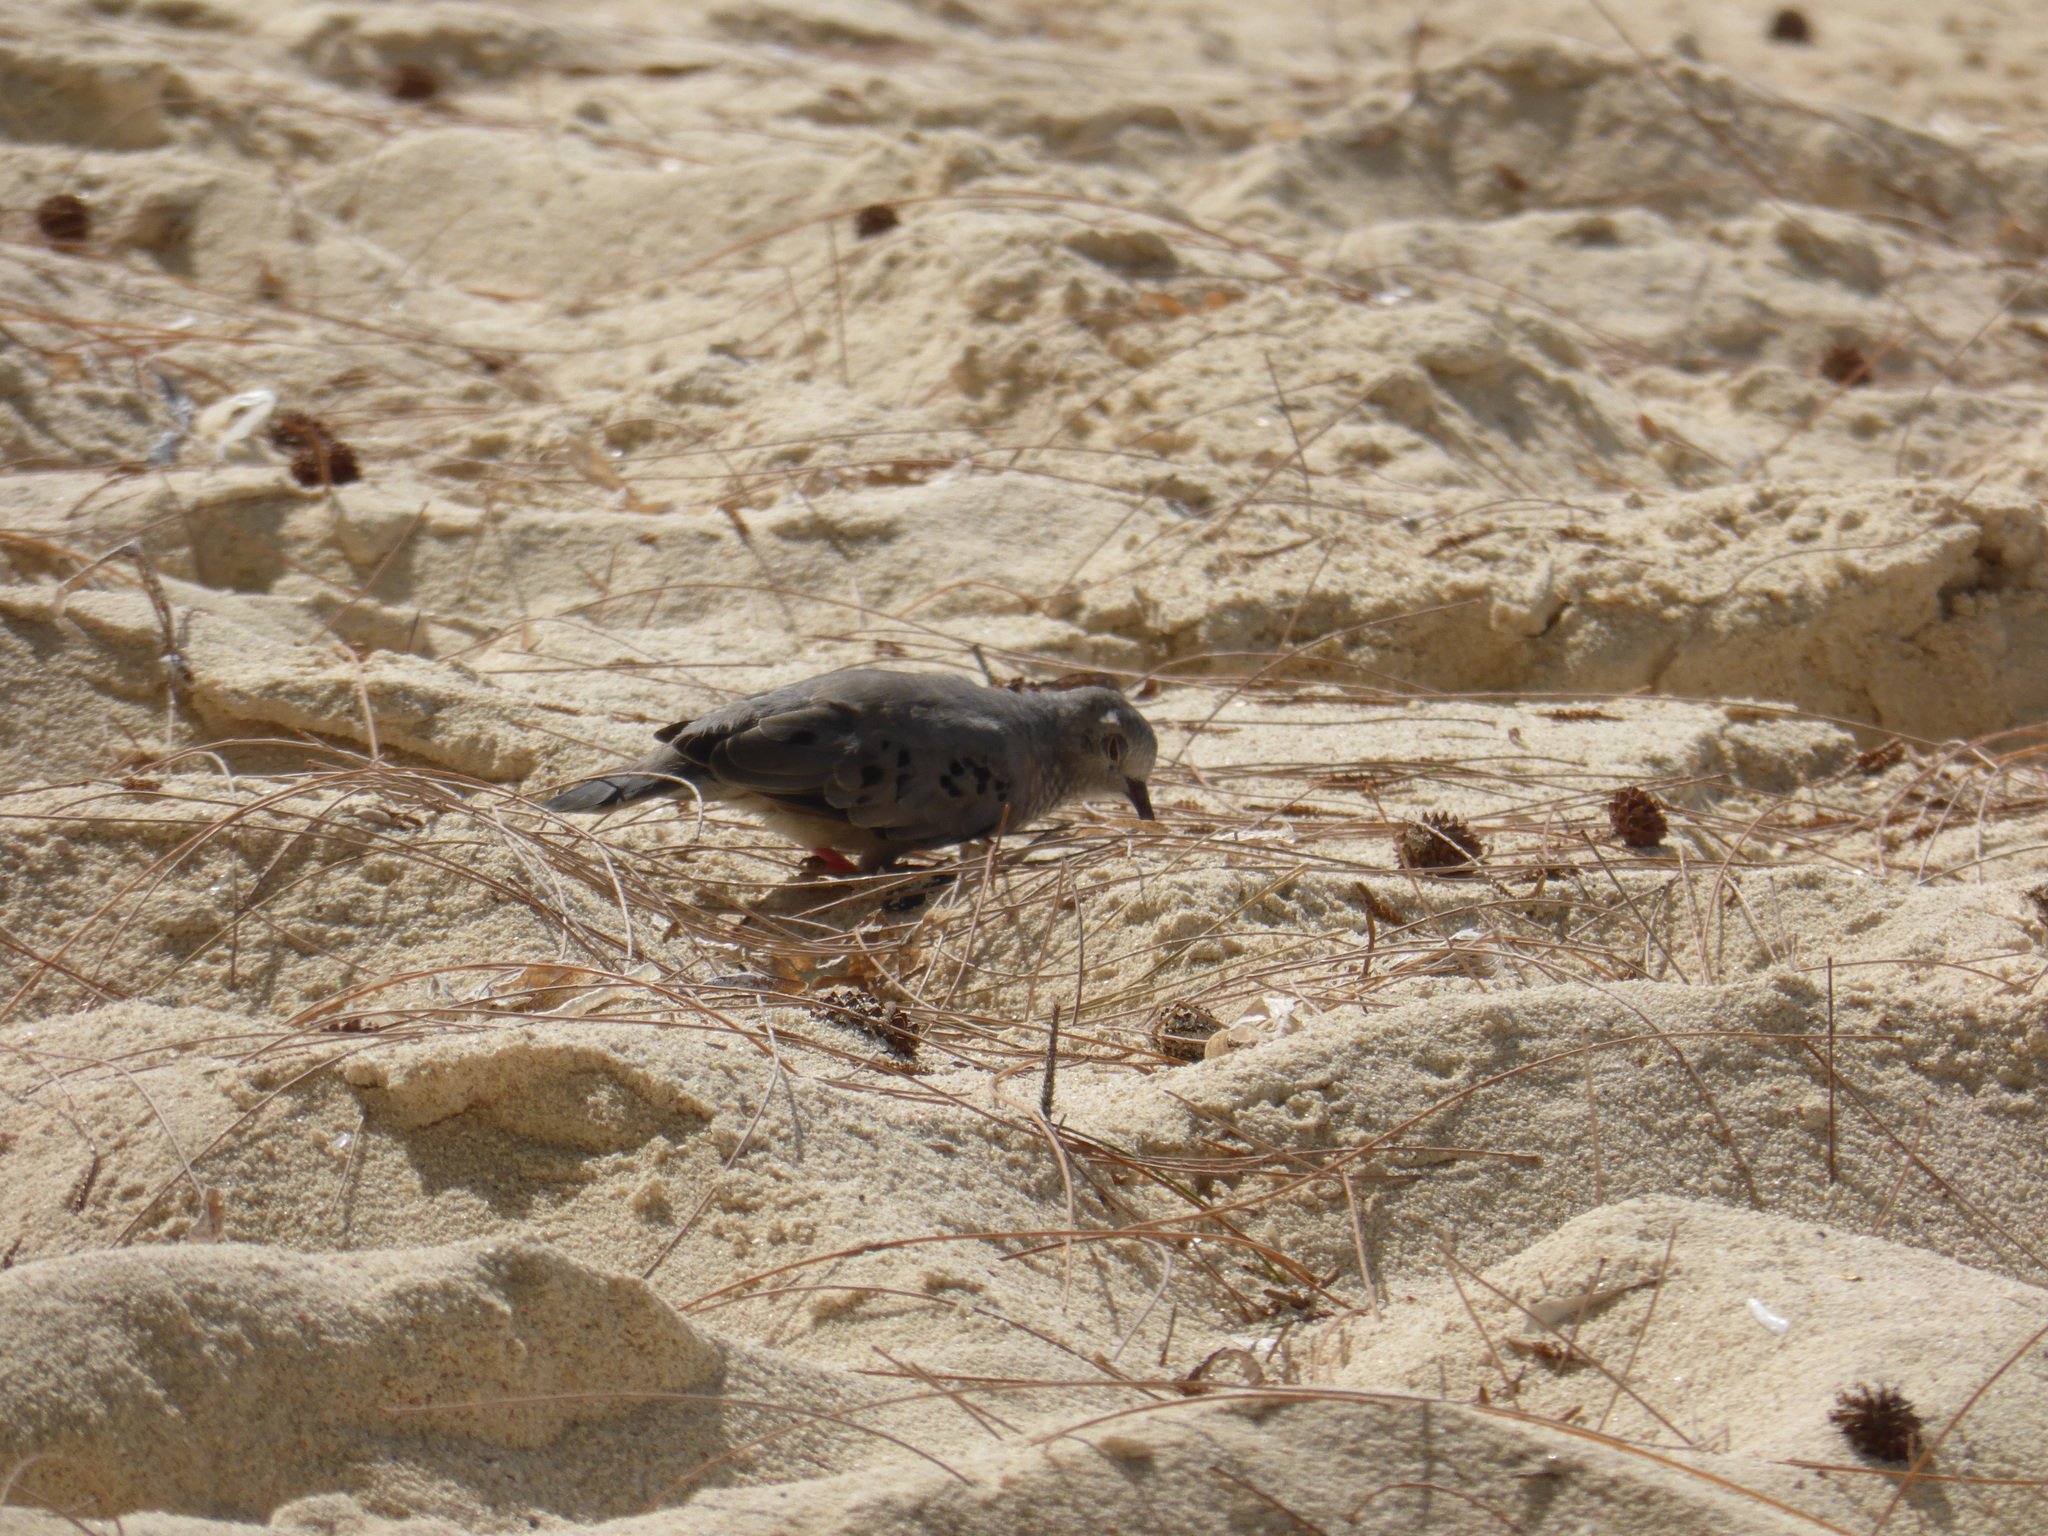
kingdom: Animalia
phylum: Chordata
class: Aves
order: Columbiformes
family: Columbidae
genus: Columbina
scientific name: Columbina passerina
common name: Common ground-dove
